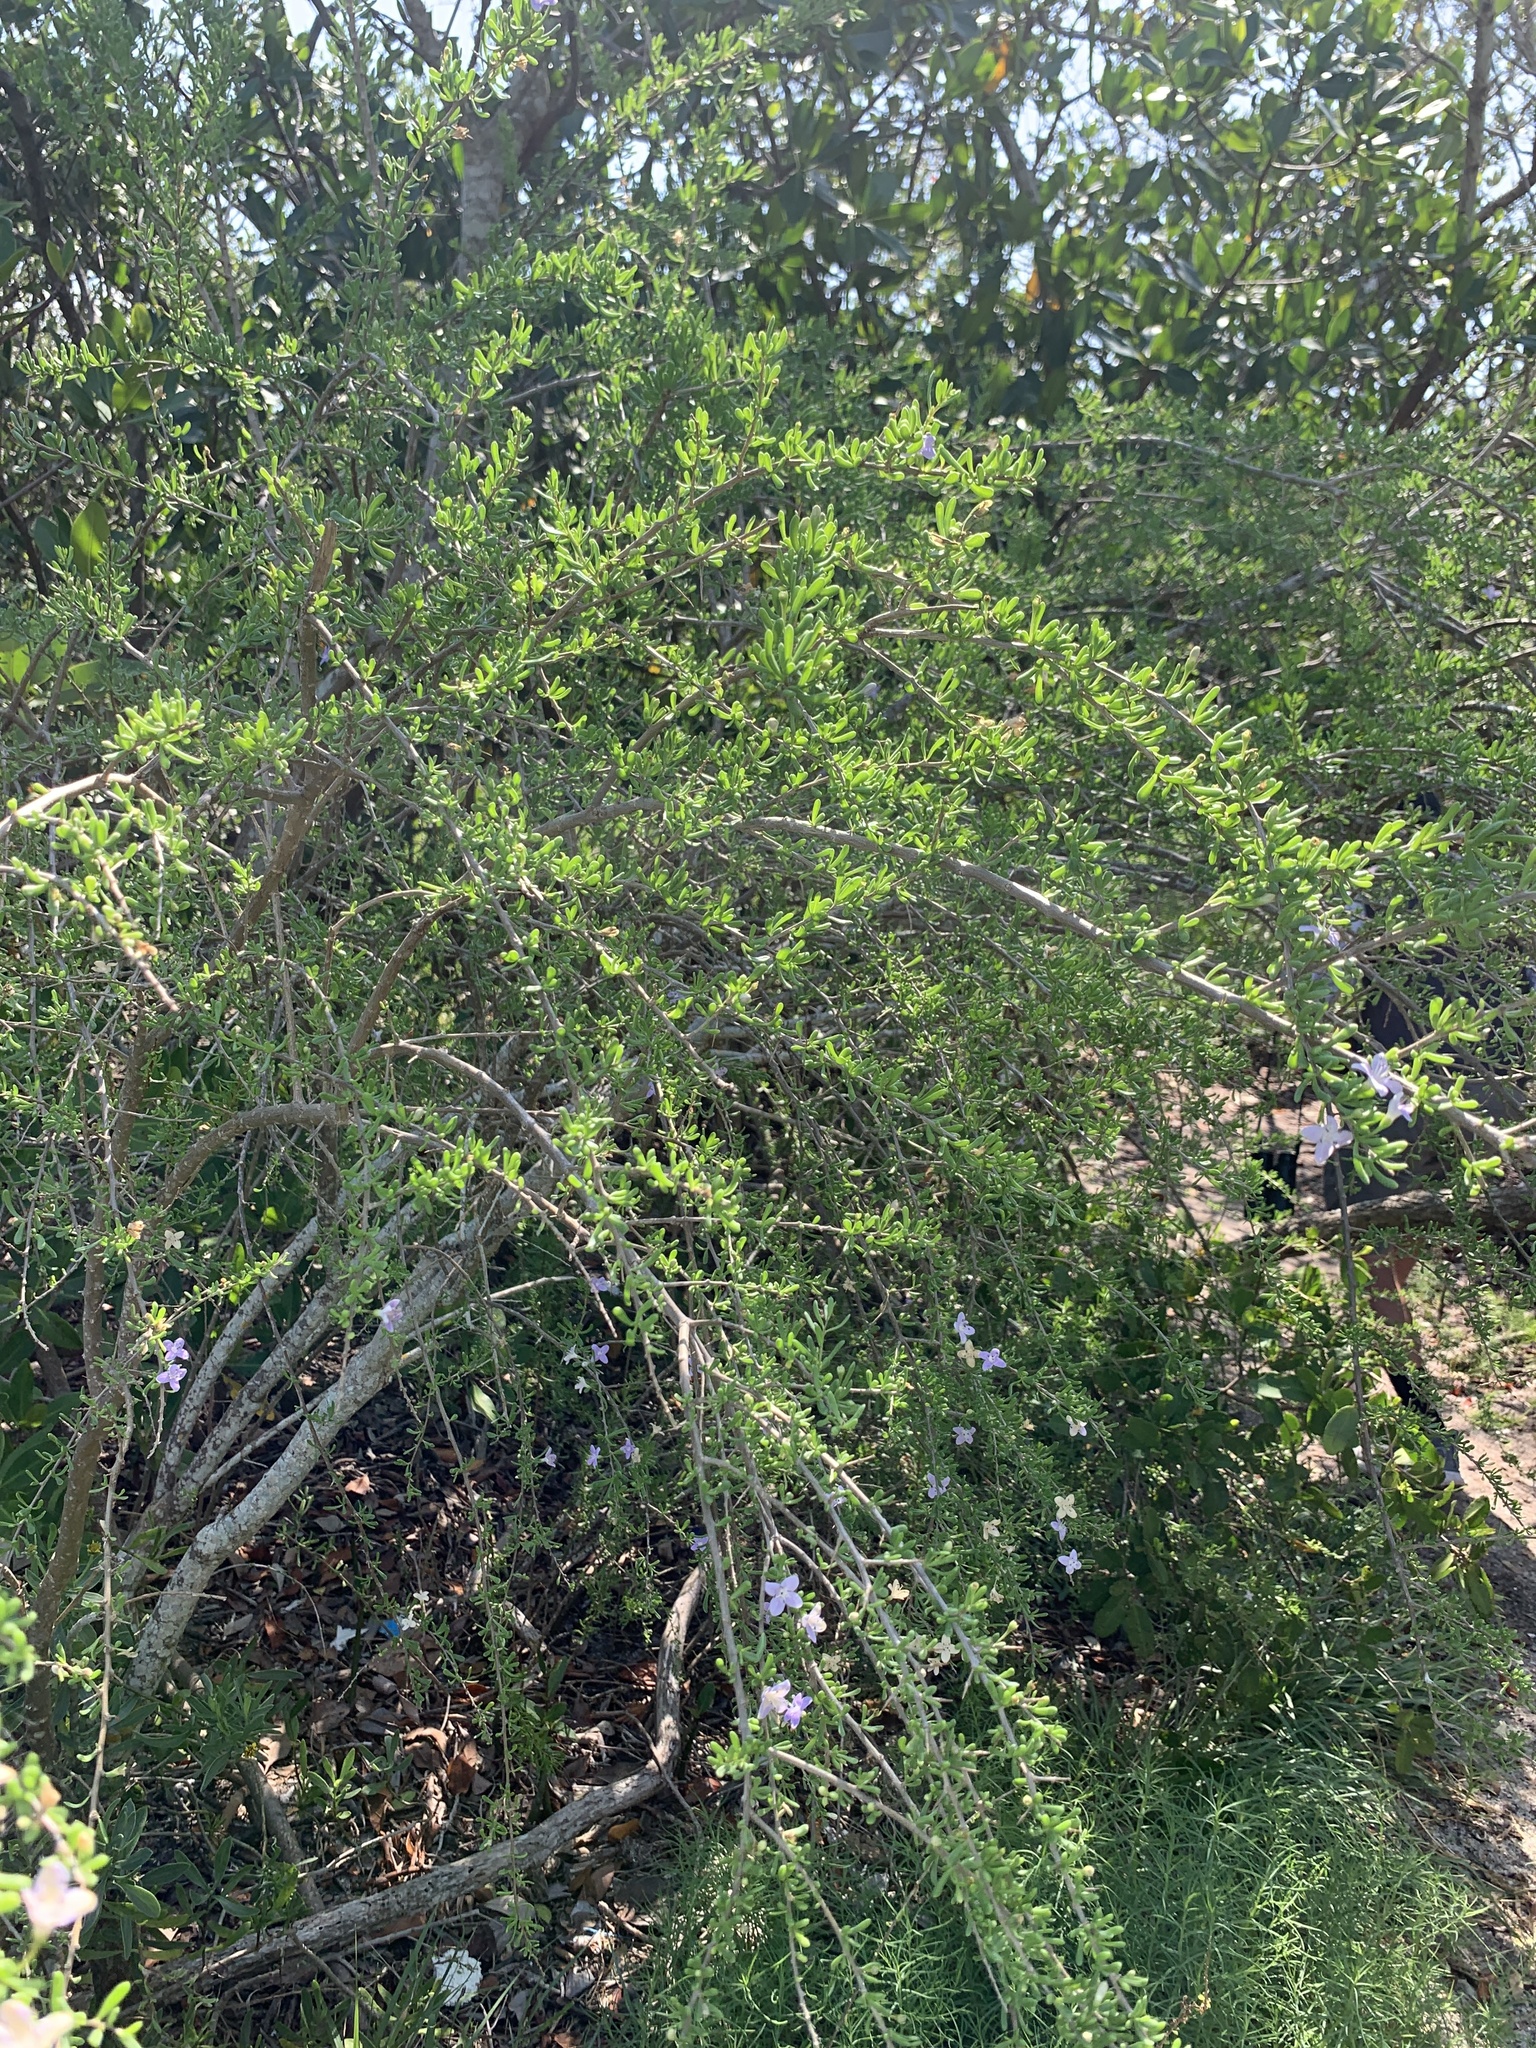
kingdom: Plantae
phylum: Tracheophyta
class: Magnoliopsida
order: Solanales
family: Solanaceae
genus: Lycium
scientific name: Lycium carolinianum
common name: Christmasberry
